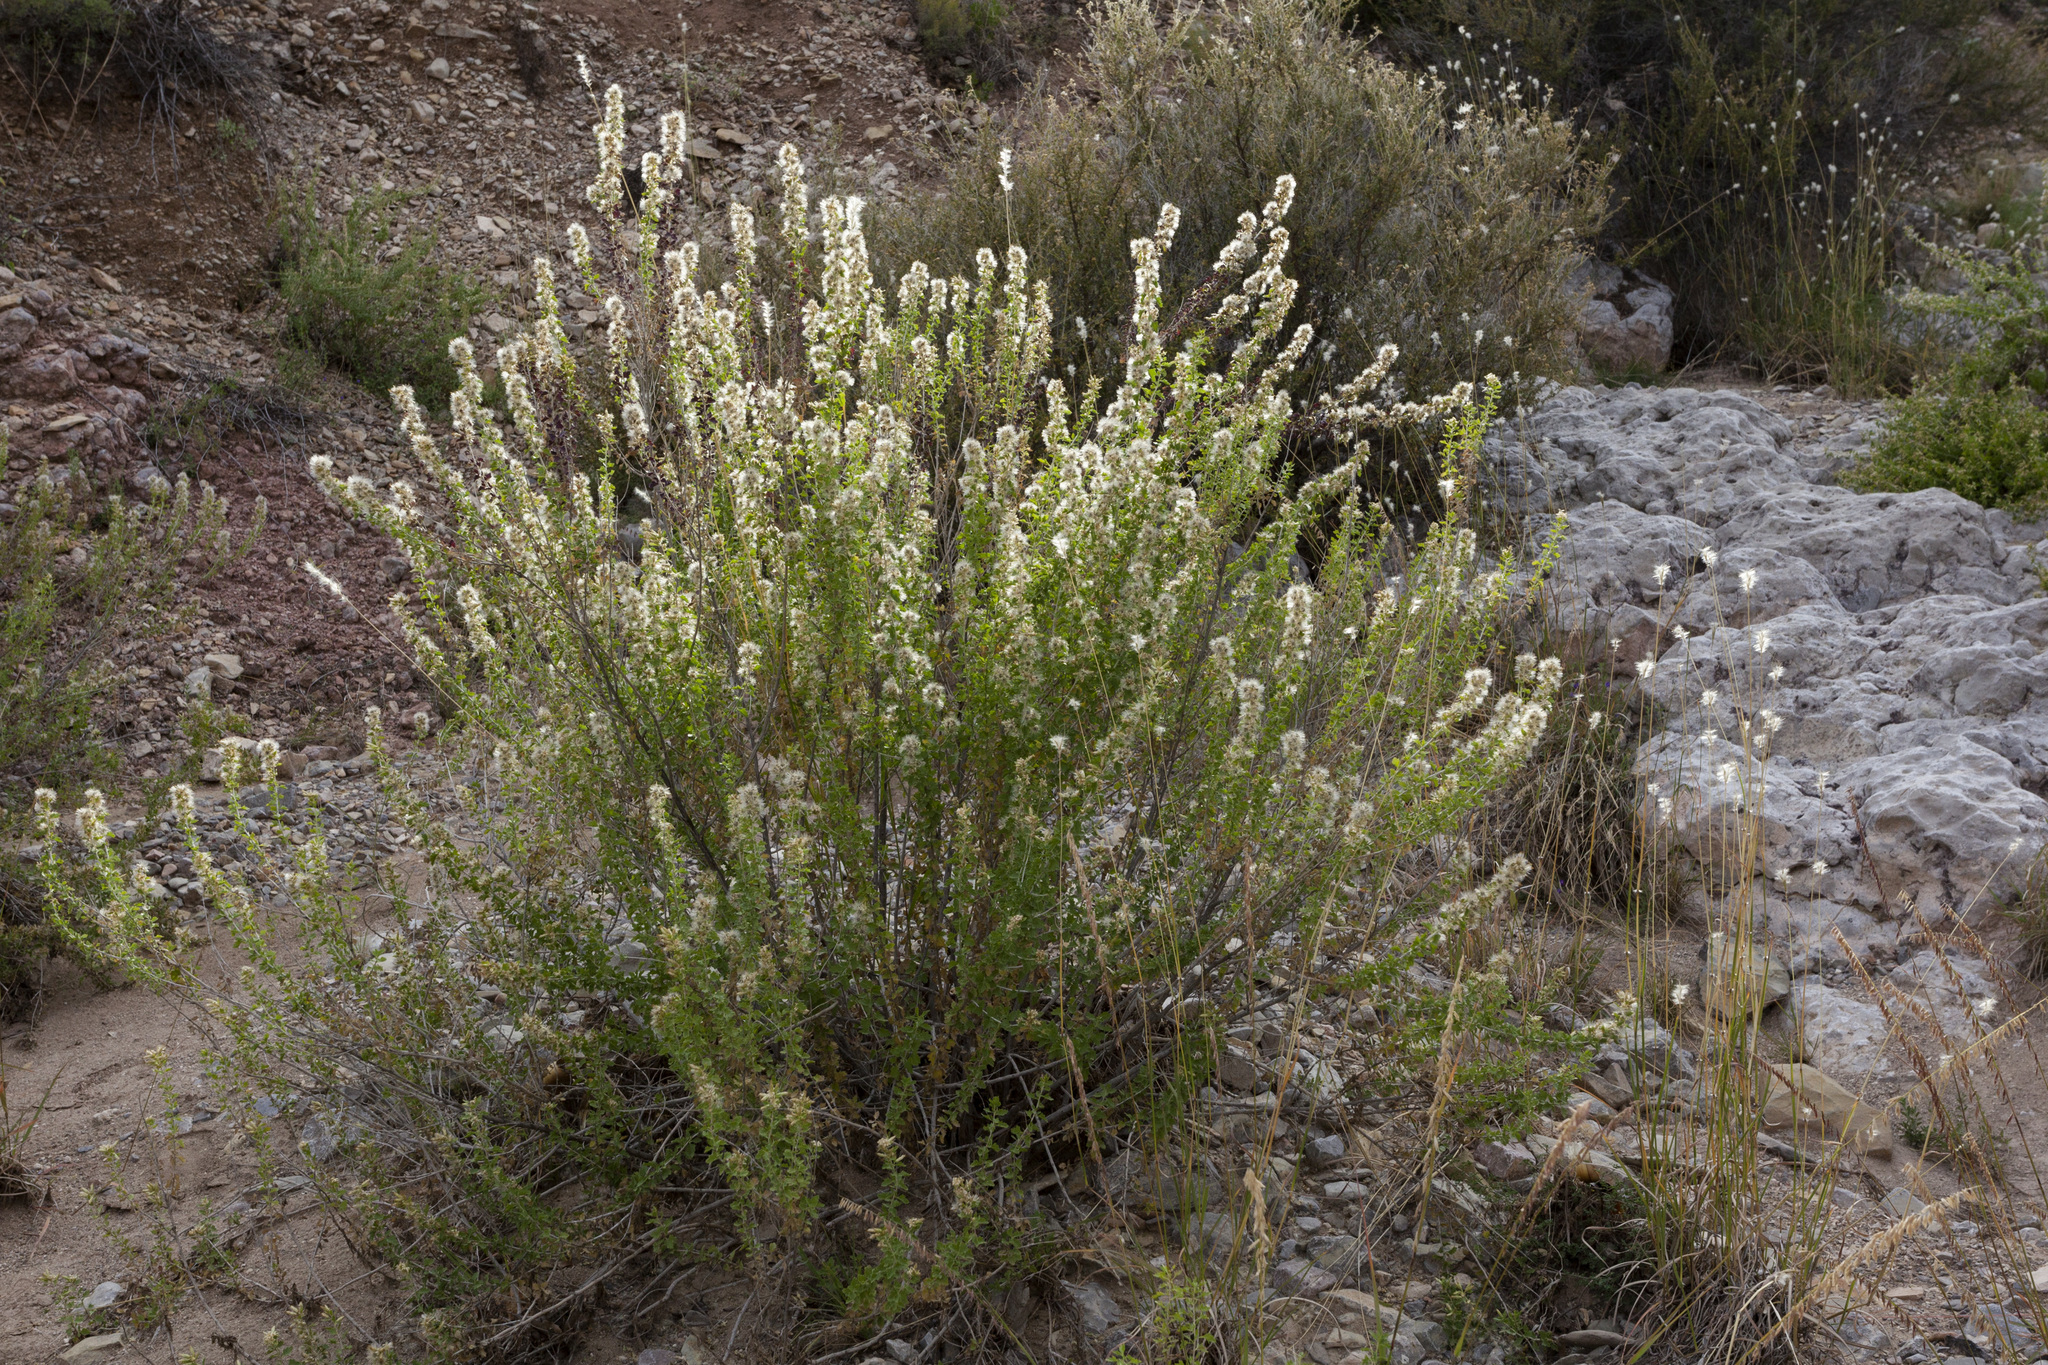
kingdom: Plantae
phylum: Tracheophyta
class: Magnoliopsida
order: Asterales
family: Asteraceae
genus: Brickellia
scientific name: Brickellia laciniata
